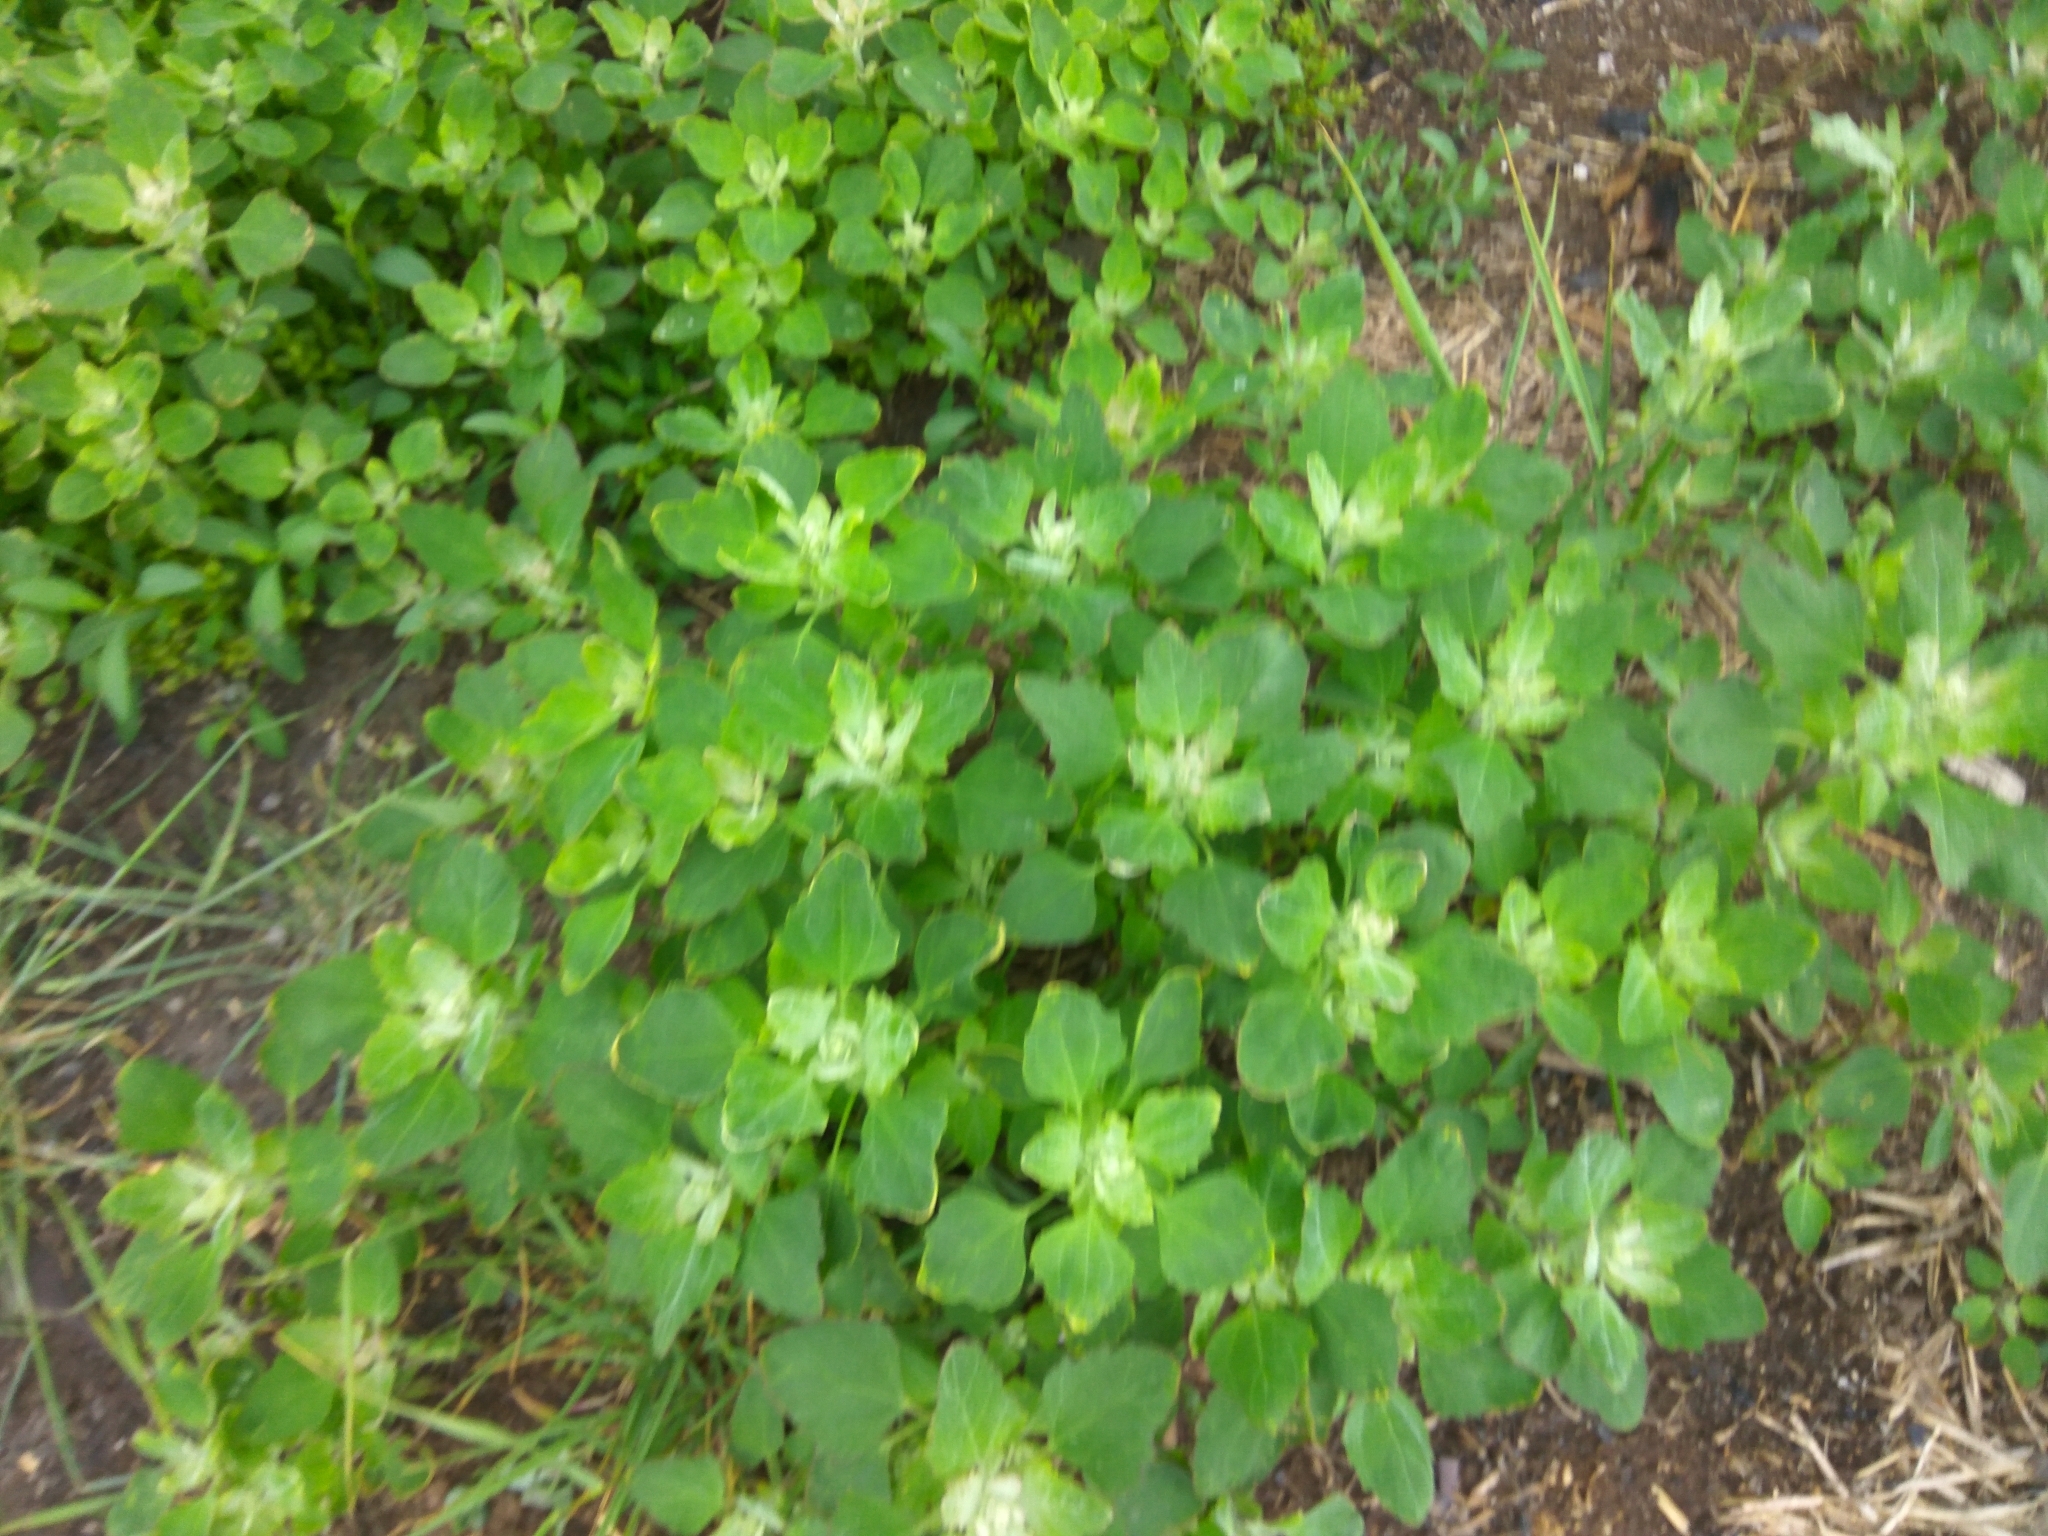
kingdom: Plantae
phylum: Tracheophyta
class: Magnoliopsida
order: Caryophyllales
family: Amaranthaceae
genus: Chenopodium
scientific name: Chenopodium album
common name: Fat-hen
